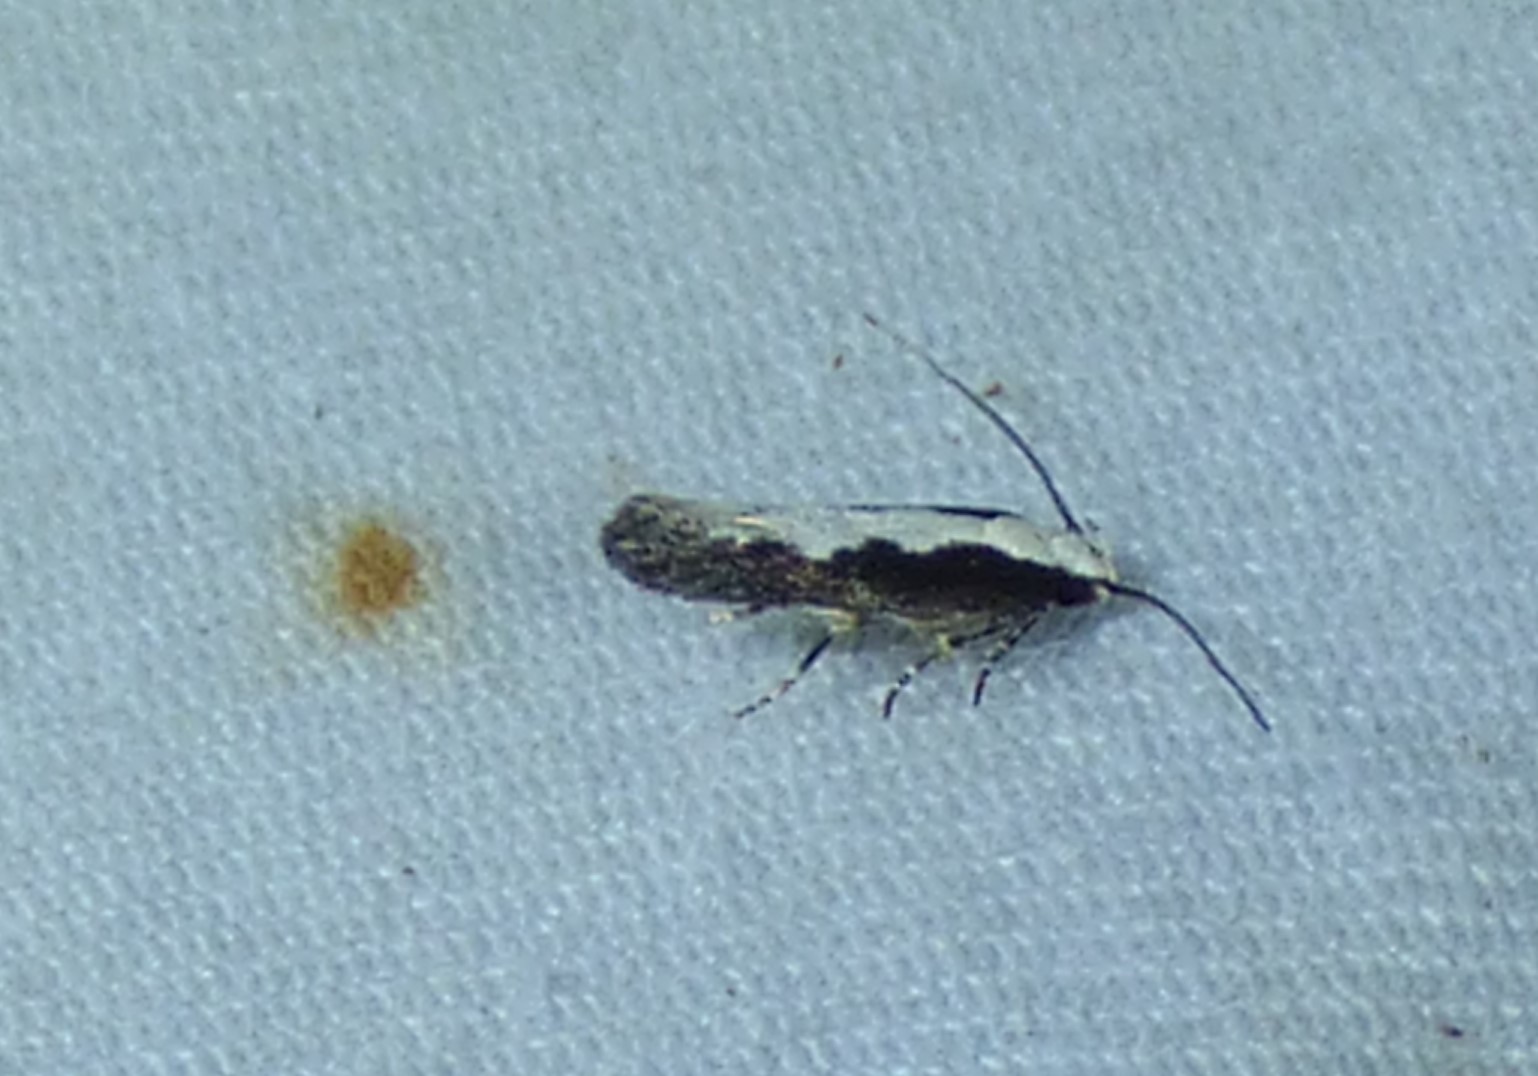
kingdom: Animalia
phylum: Arthropoda
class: Insecta
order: Lepidoptera
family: Gelechiidae
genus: Agnippe
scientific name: Agnippe prunifoliella
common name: Skunk twirler
